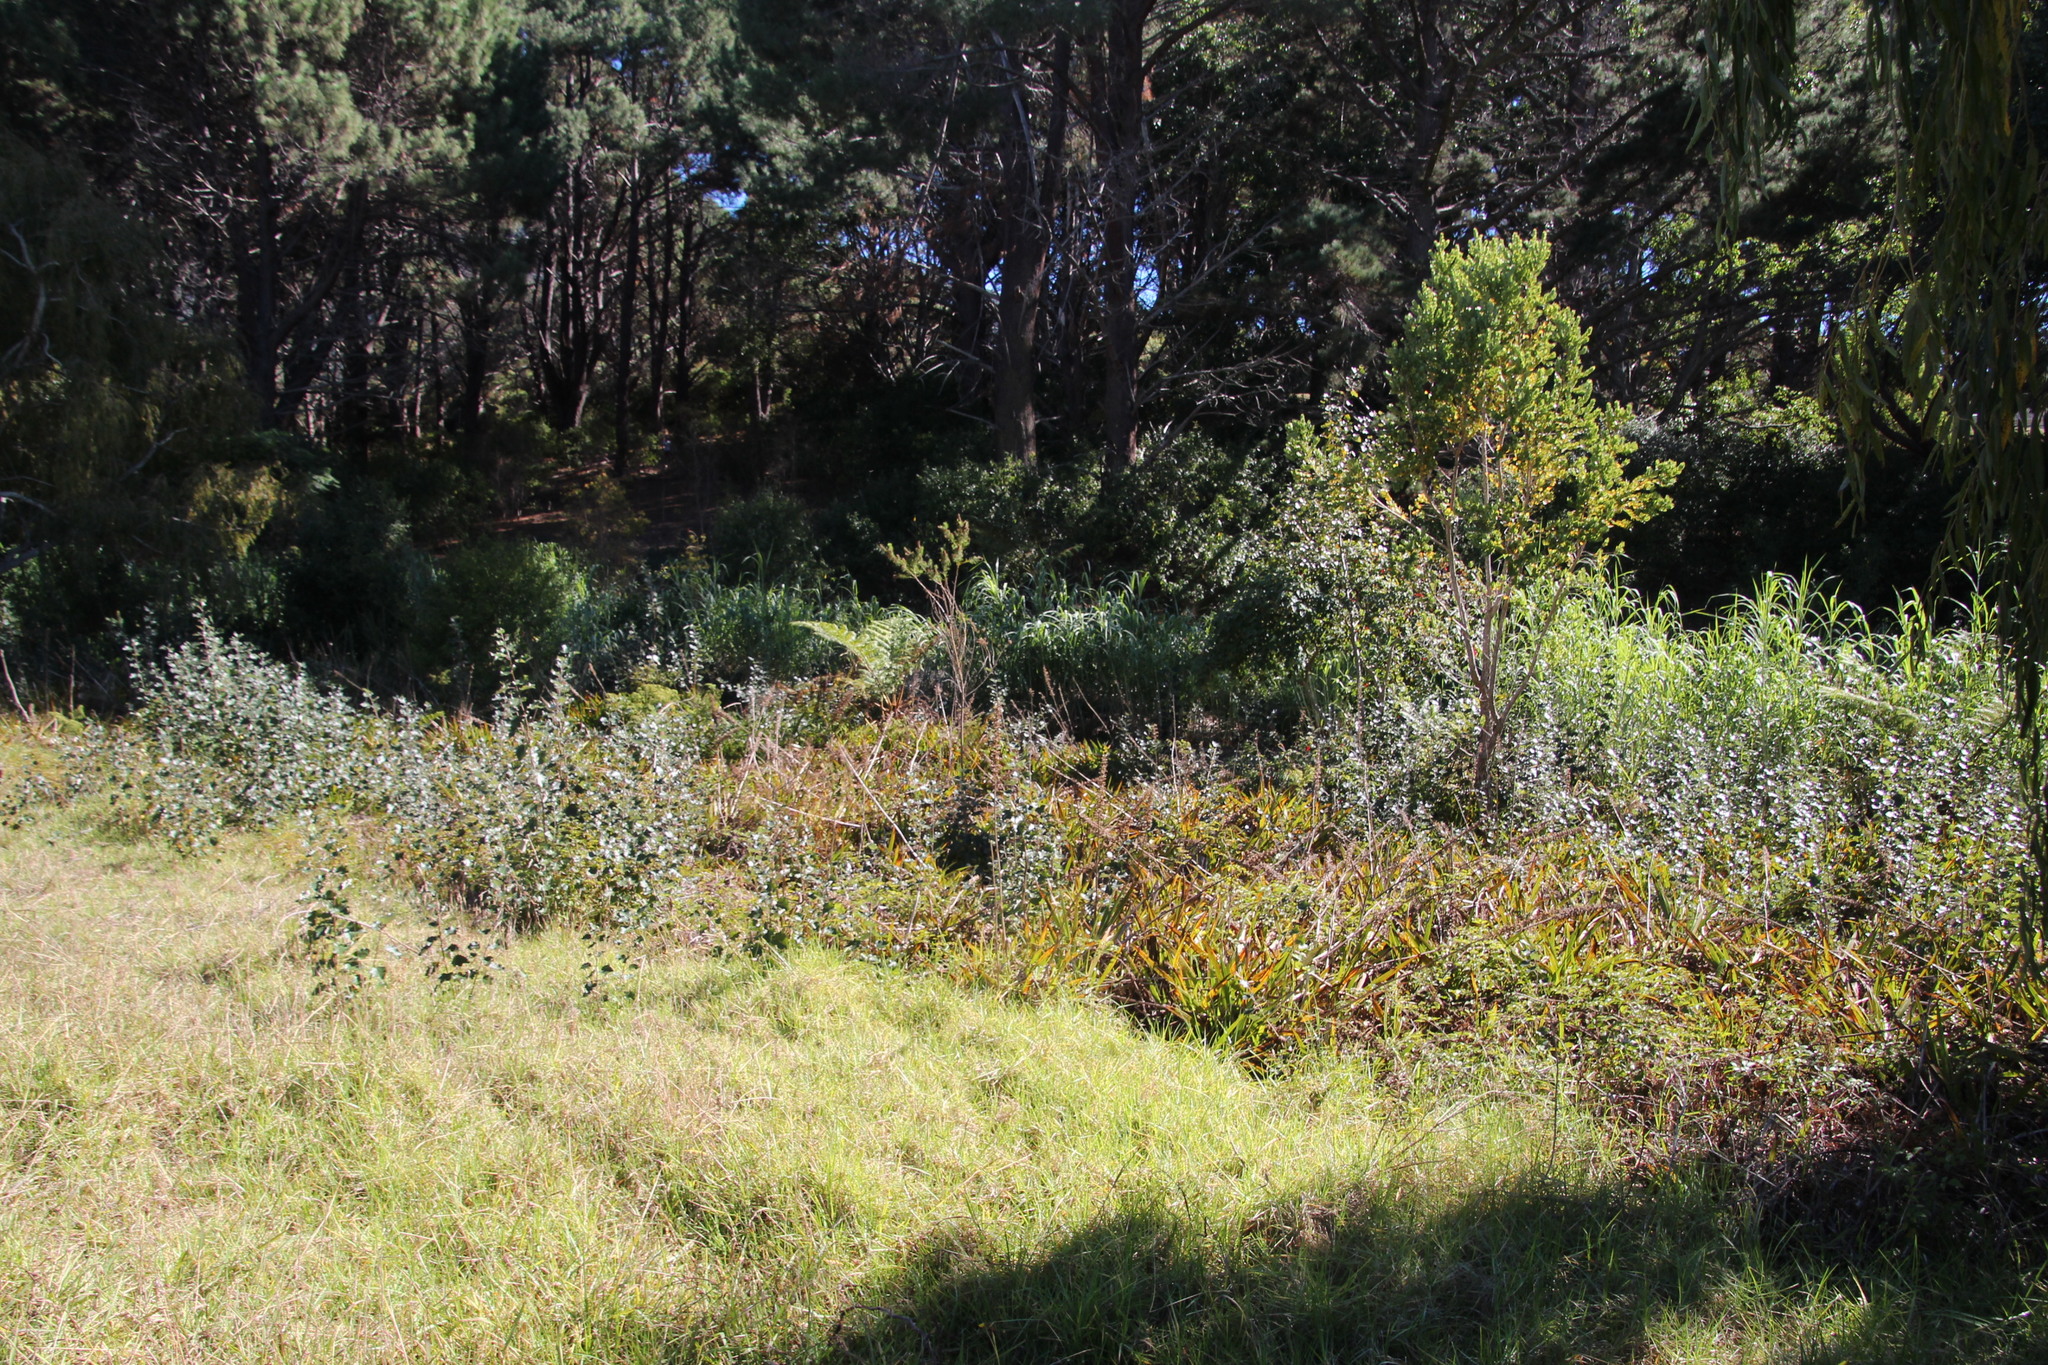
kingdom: Plantae
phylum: Tracheophyta
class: Magnoliopsida
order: Fabales
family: Fabaceae
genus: Psoralea
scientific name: Psoralea pinnata
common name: African scurfpea
